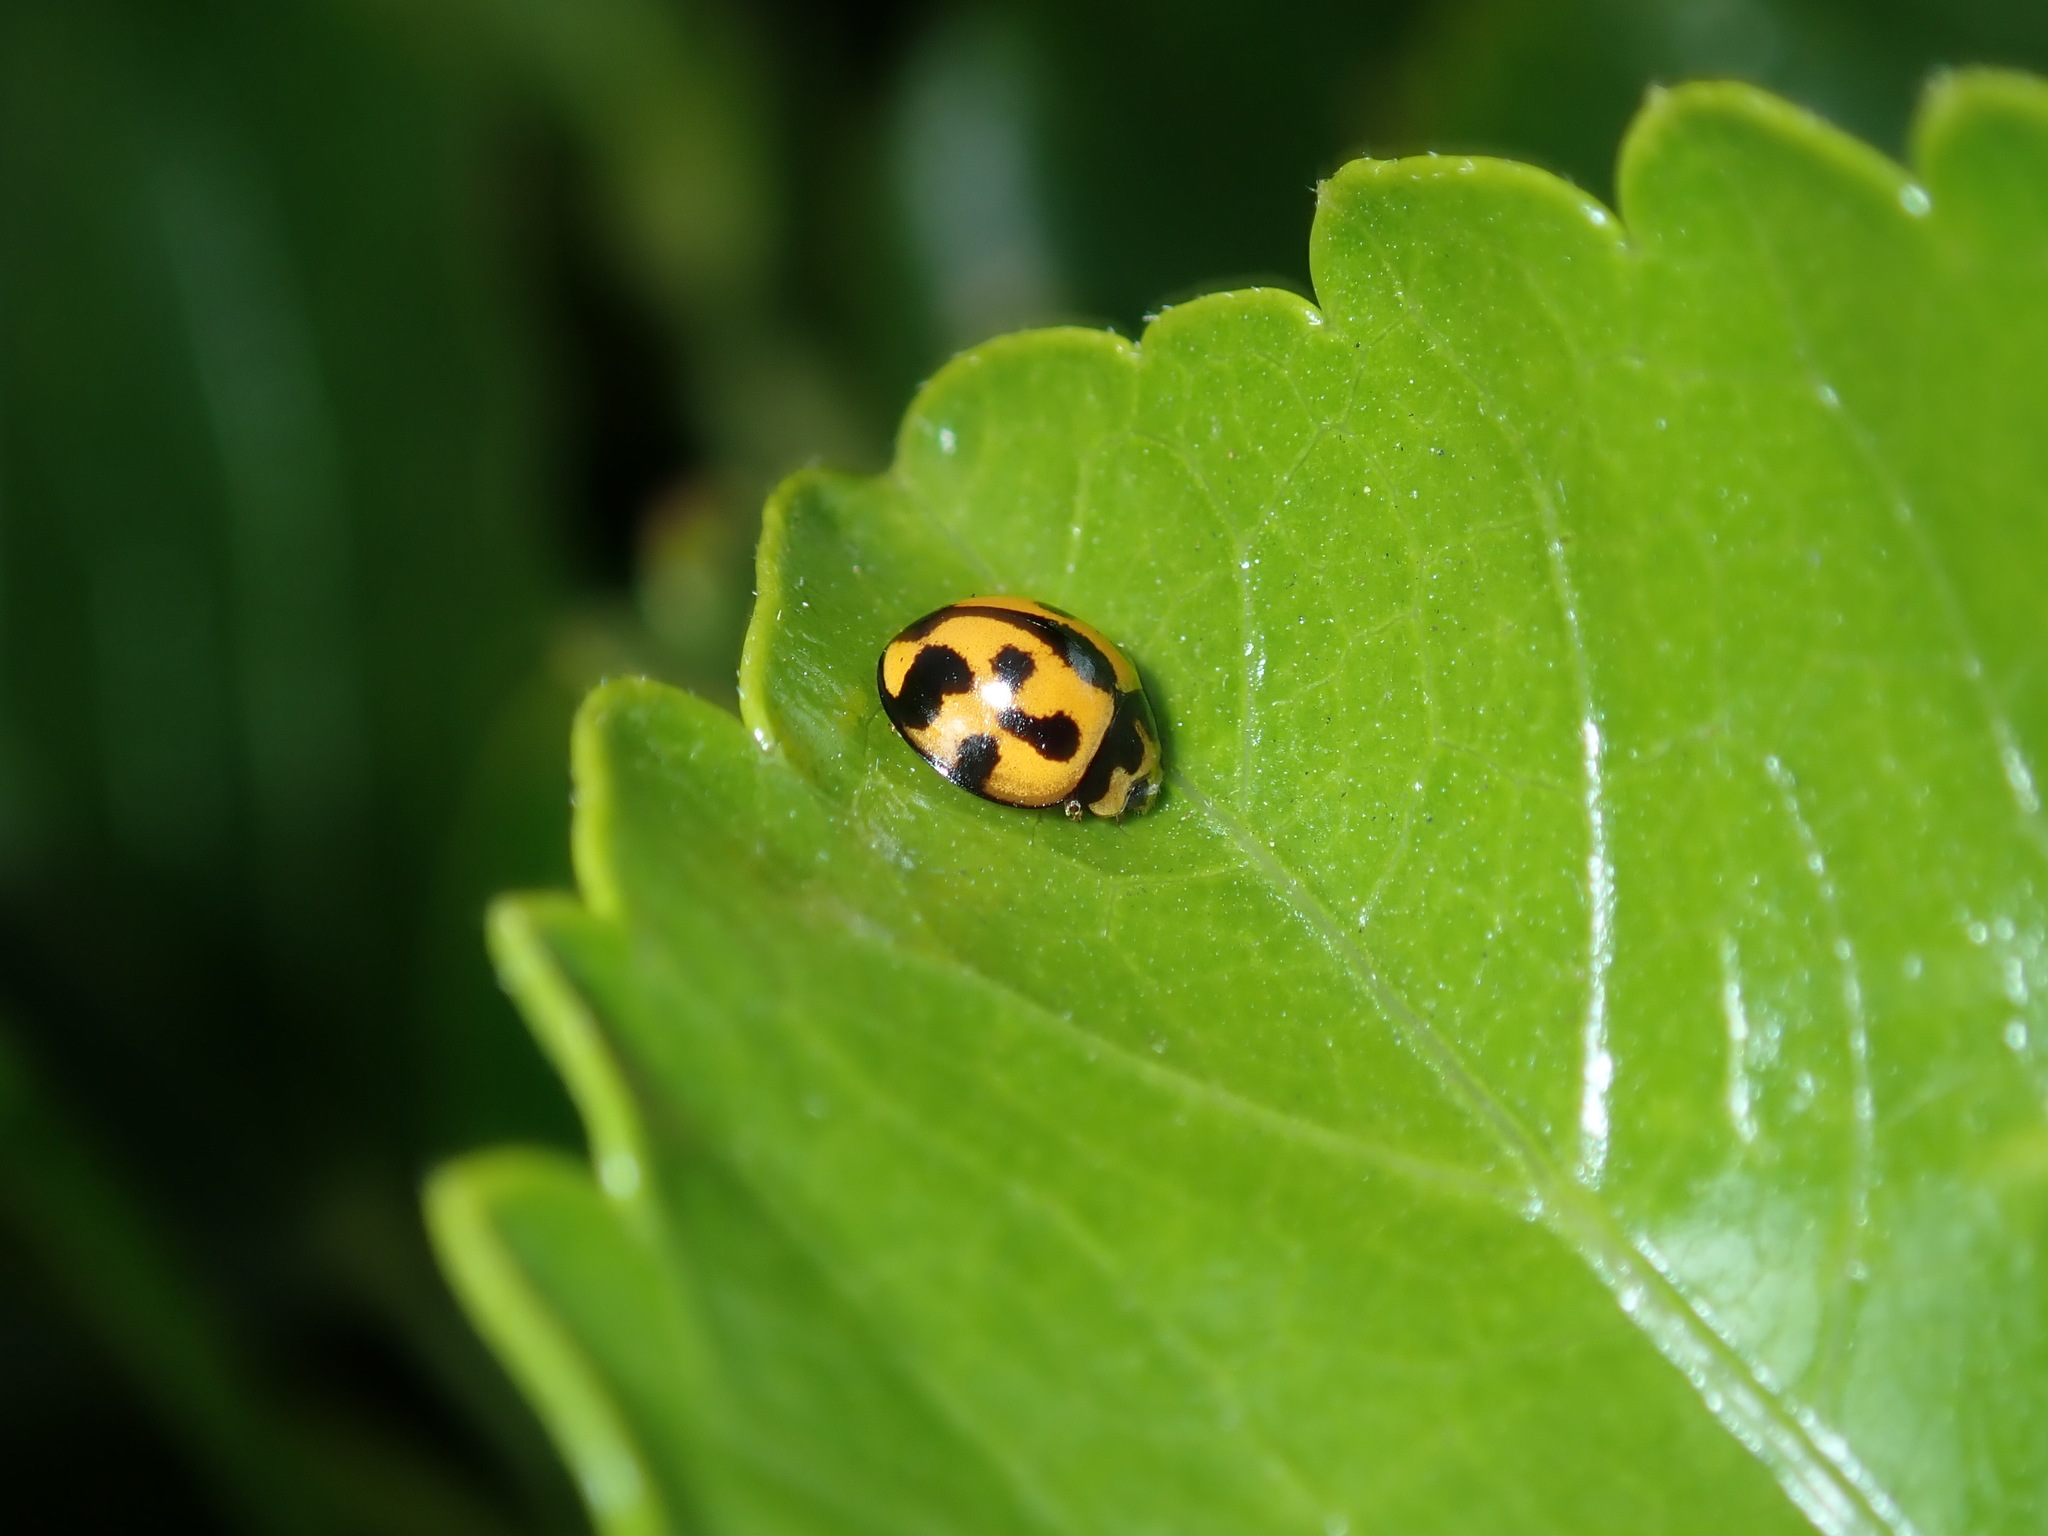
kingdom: Animalia
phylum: Arthropoda
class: Insecta
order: Coleoptera
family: Coccinellidae
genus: Coelophora
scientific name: Coelophora inaequalis
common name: Common australian lady beetle
